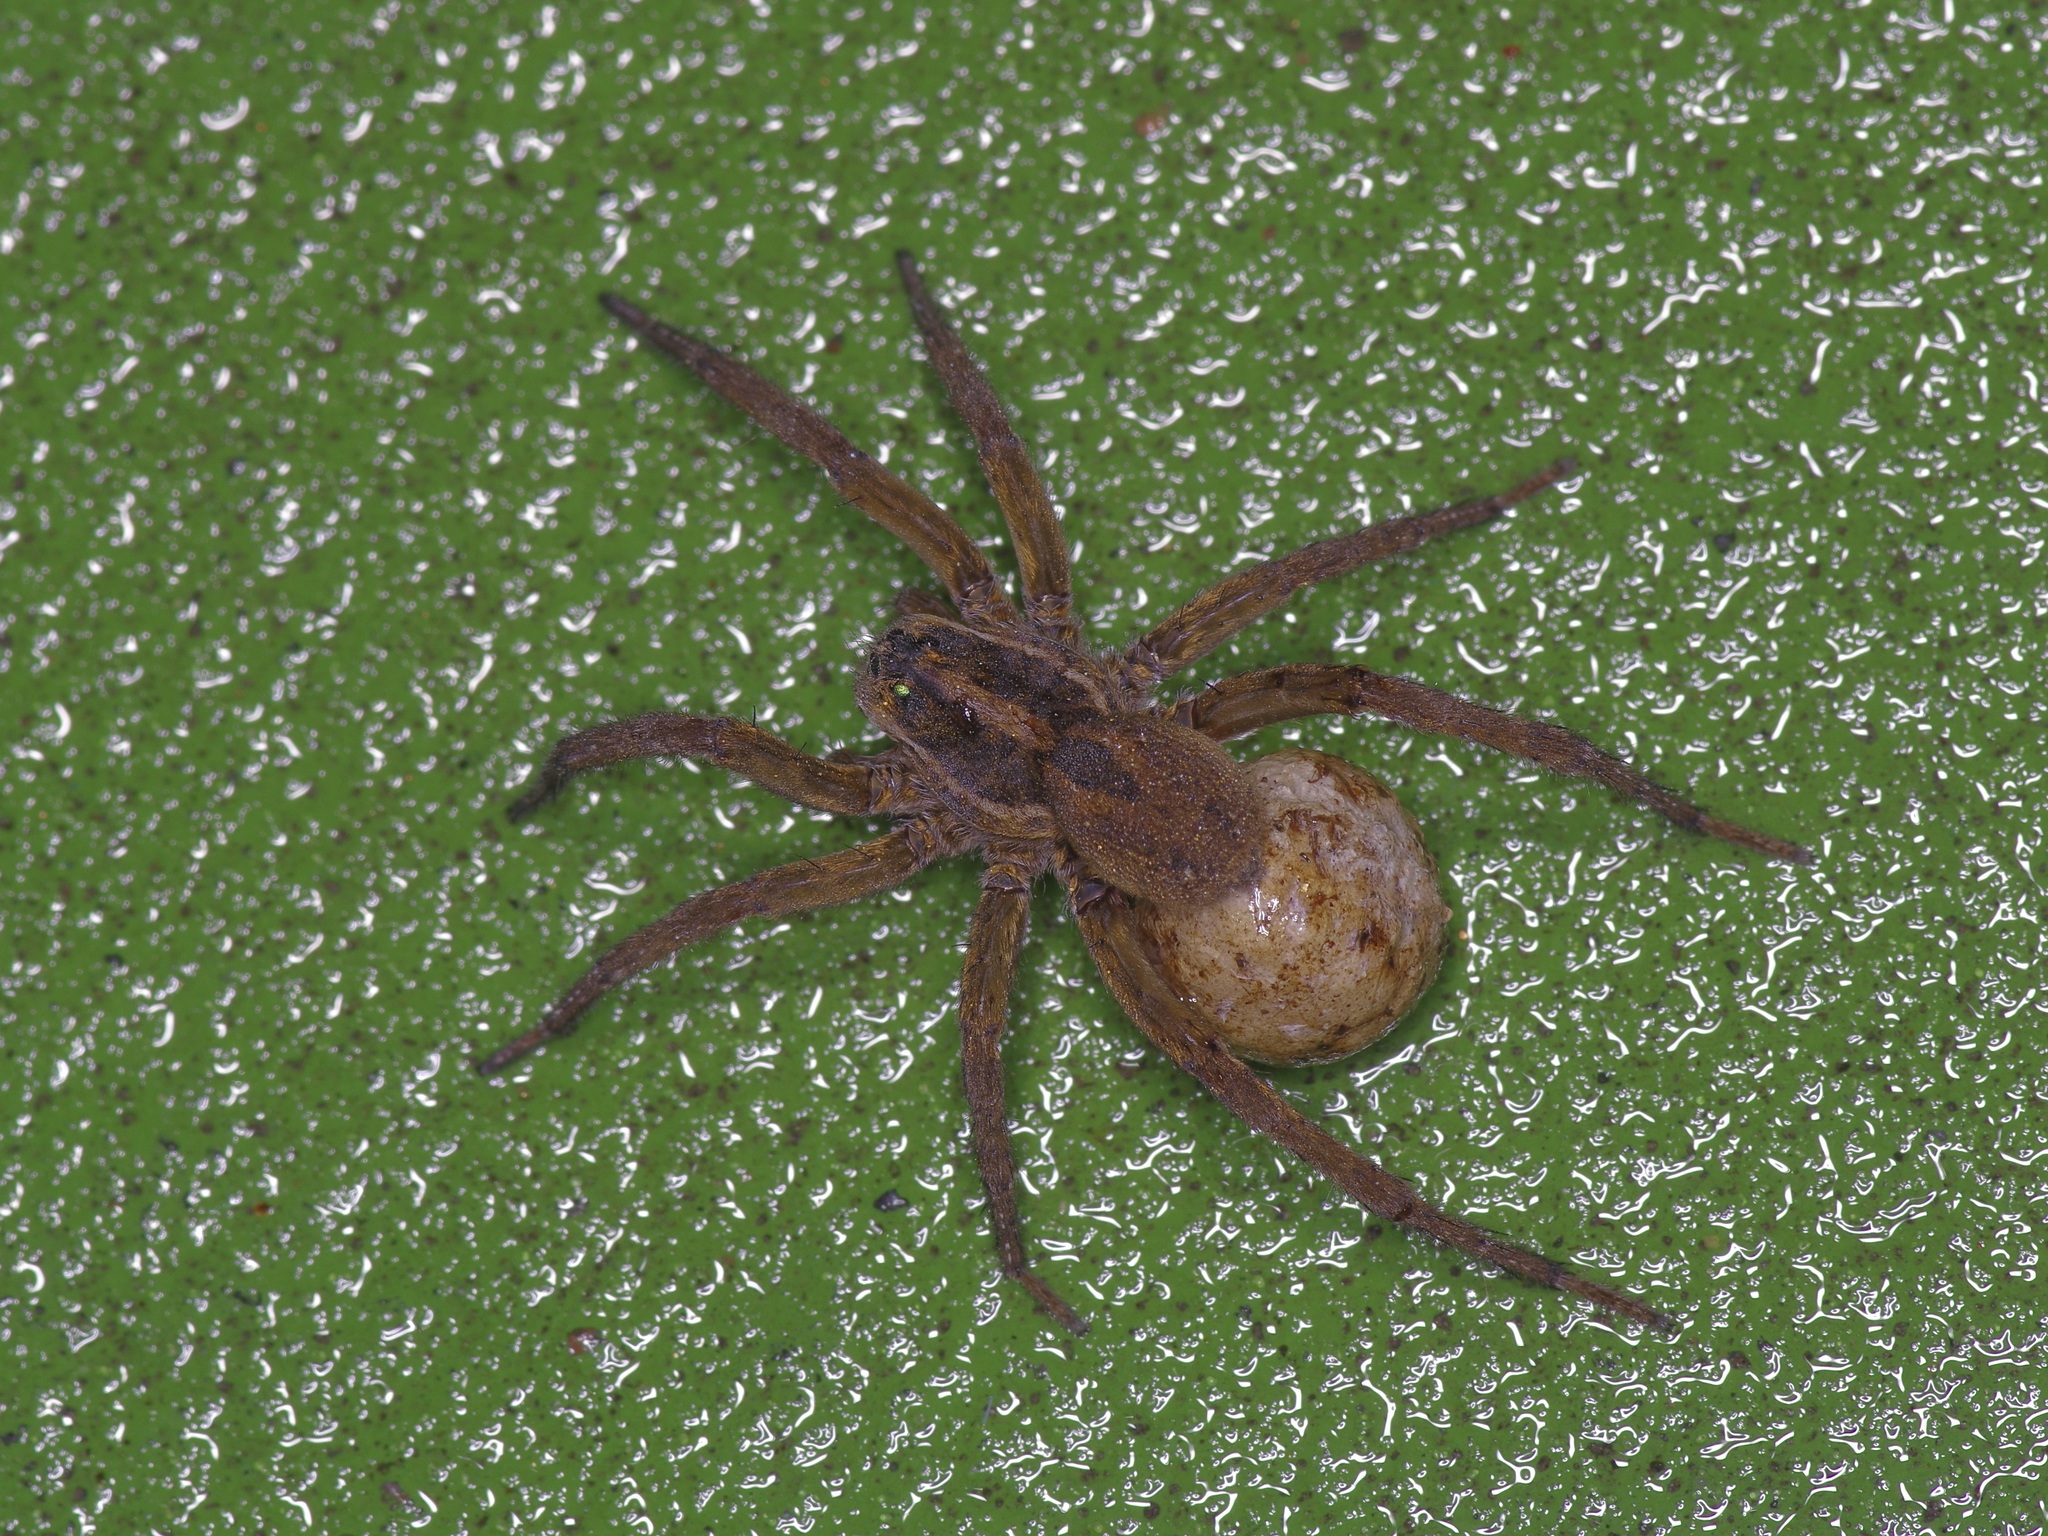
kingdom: Animalia
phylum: Arthropoda
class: Arachnida
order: Araneae
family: Lycosidae
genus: Tigrosa
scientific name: Tigrosa annexa
